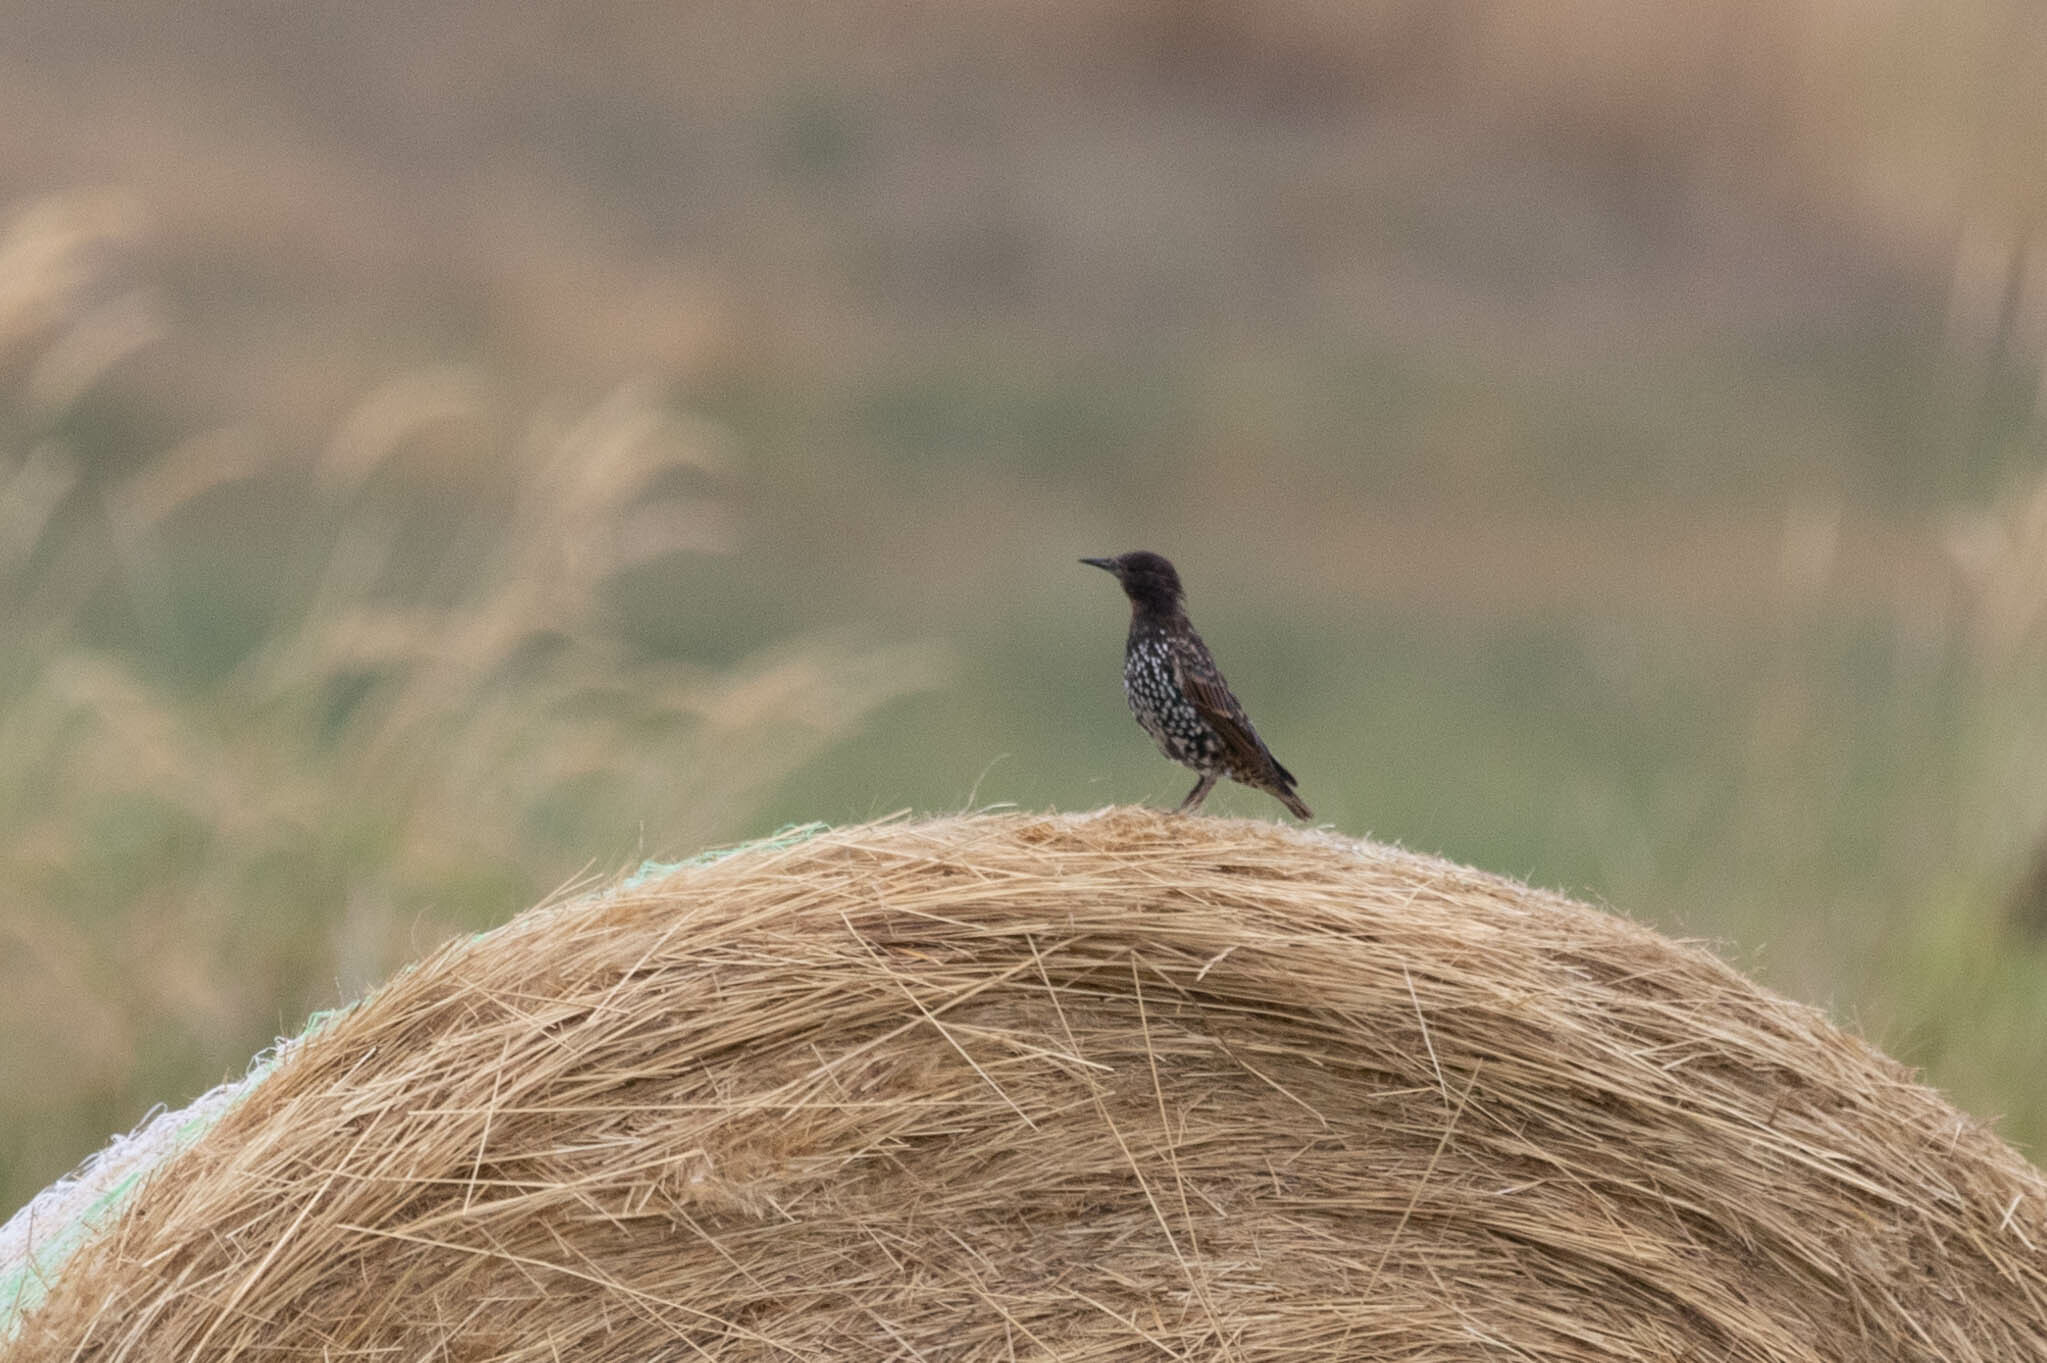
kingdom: Animalia
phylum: Chordata
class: Aves
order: Passeriformes
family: Sturnidae
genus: Sturnus
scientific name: Sturnus vulgaris
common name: Common starling
